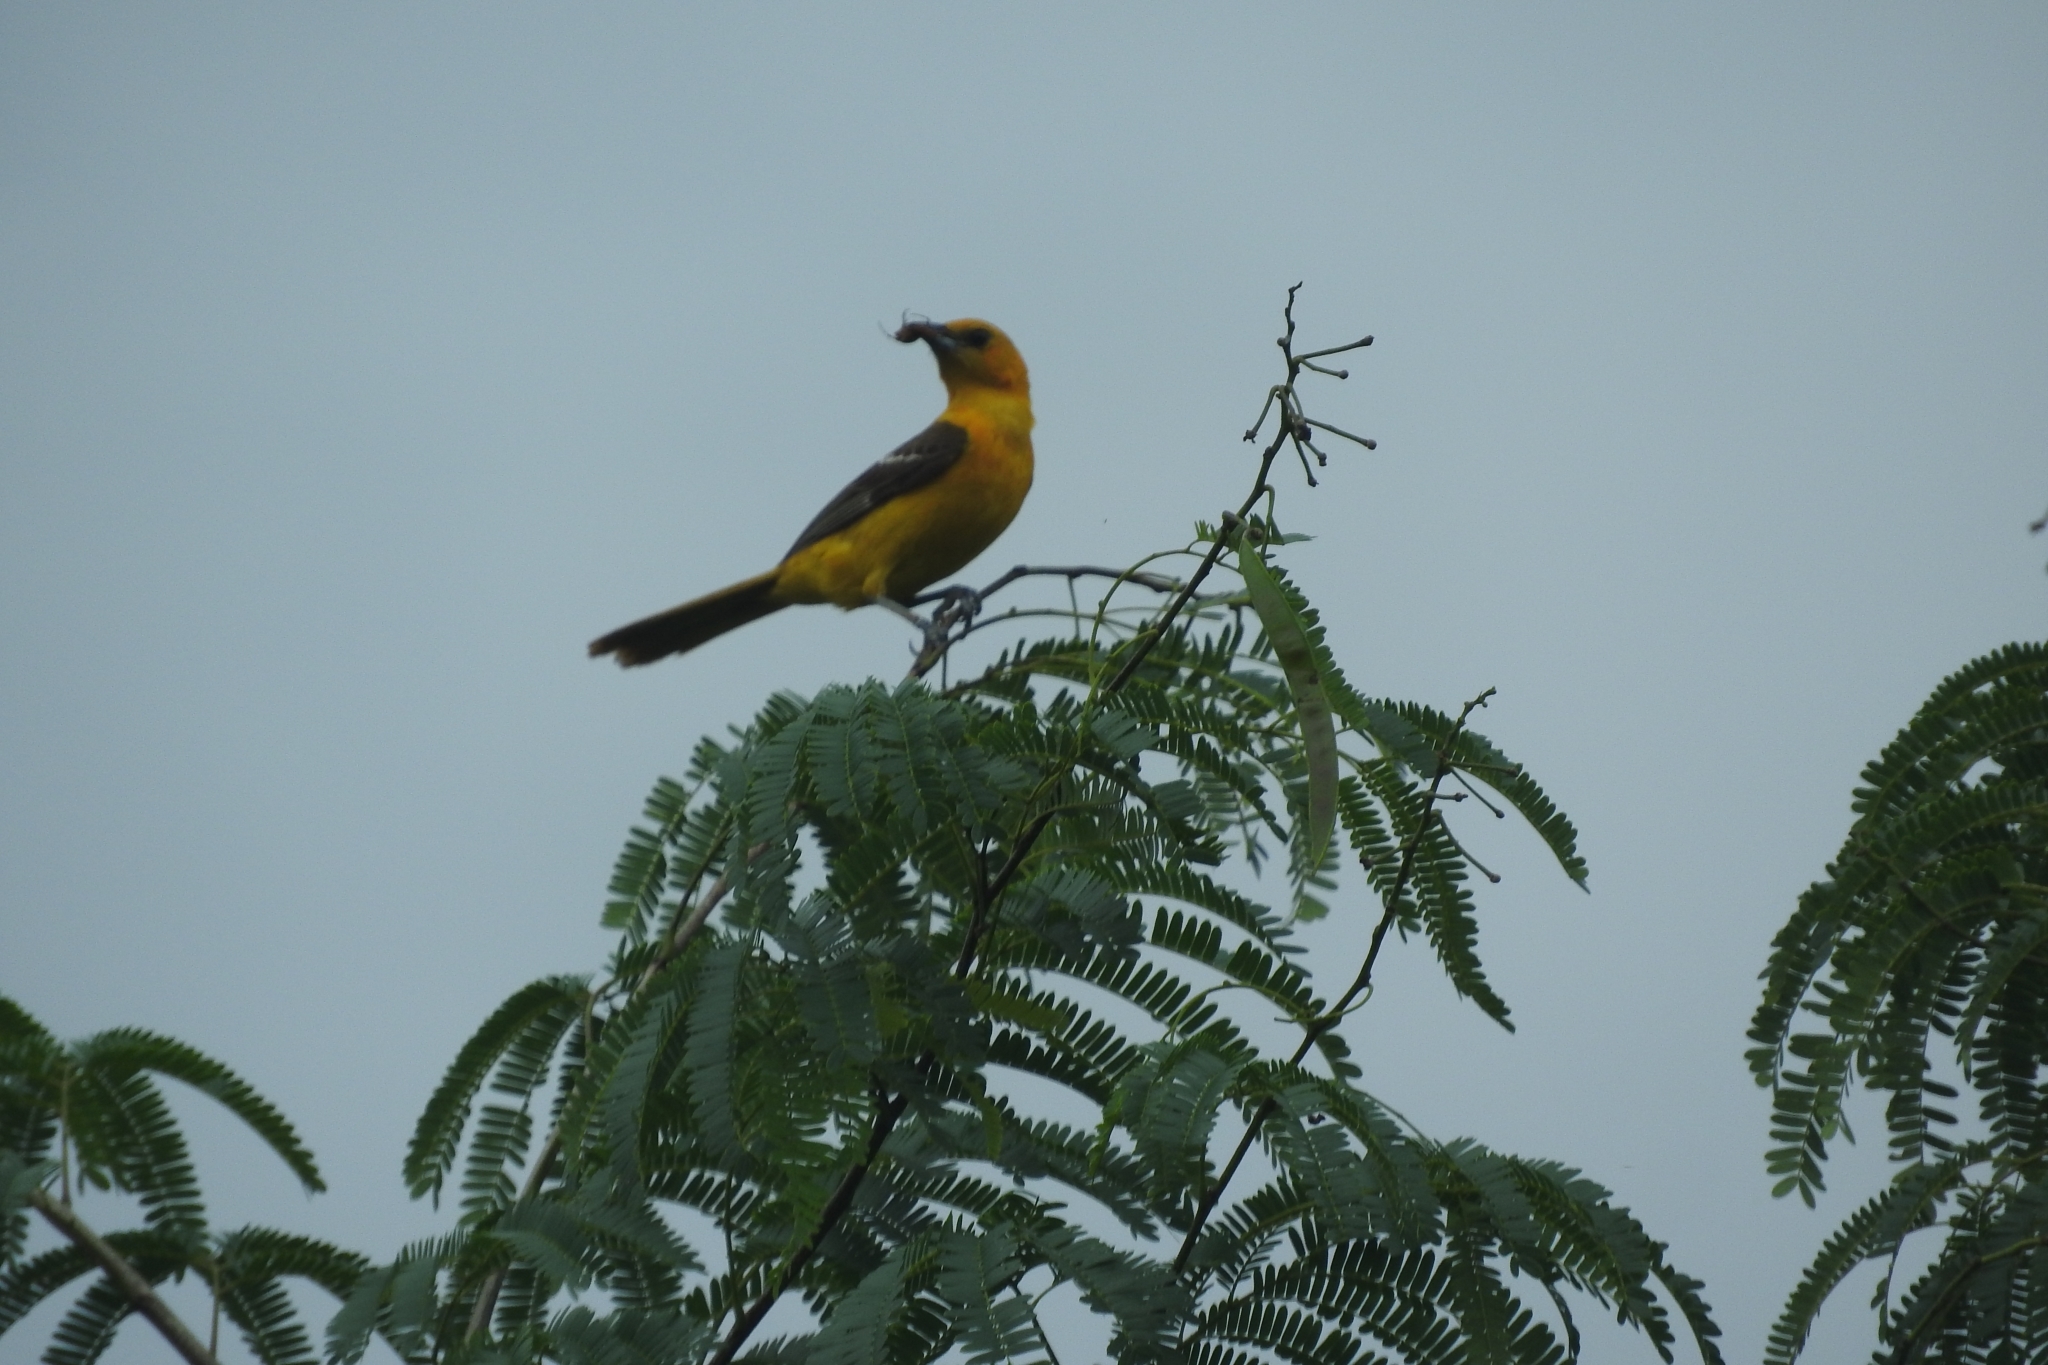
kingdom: Animalia
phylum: Chordata
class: Aves
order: Passeriformes
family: Icteridae
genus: Icterus
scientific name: Icterus cucullatus
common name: Hooded oriole
